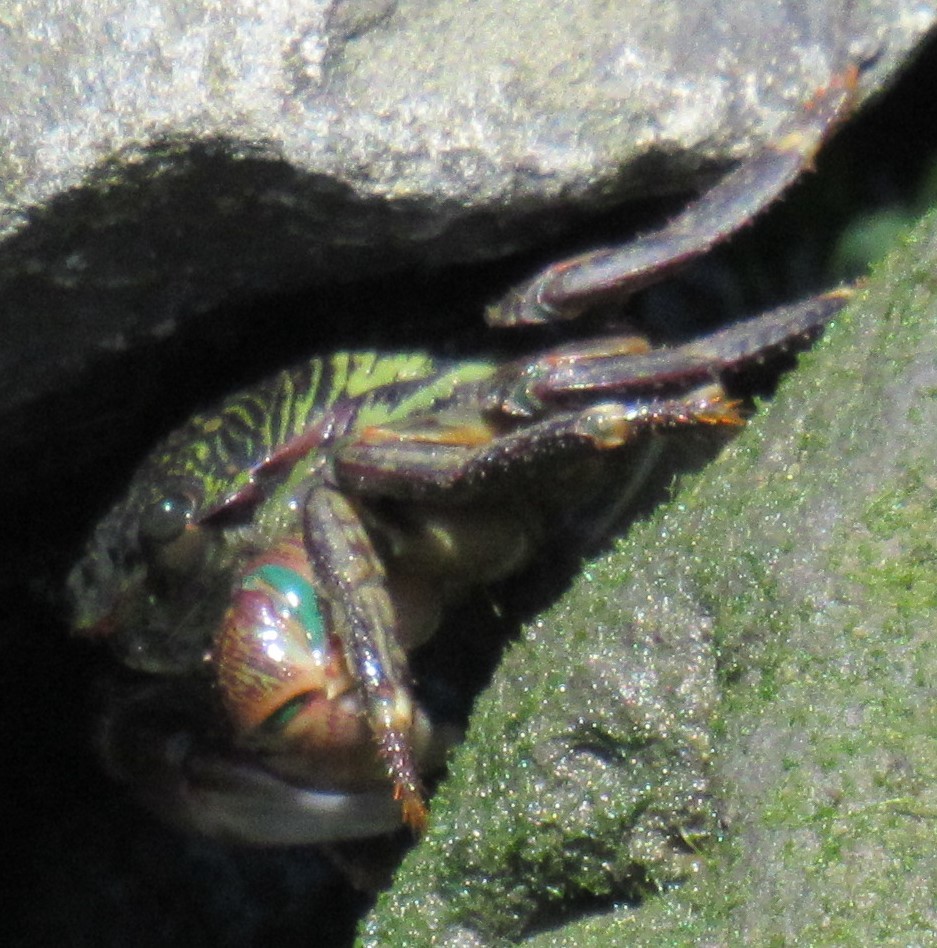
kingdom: Animalia
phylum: Arthropoda
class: Malacostraca
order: Decapoda
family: Grapsidae
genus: Pachygrapsus
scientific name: Pachygrapsus crassipes
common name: Striped shore crab
